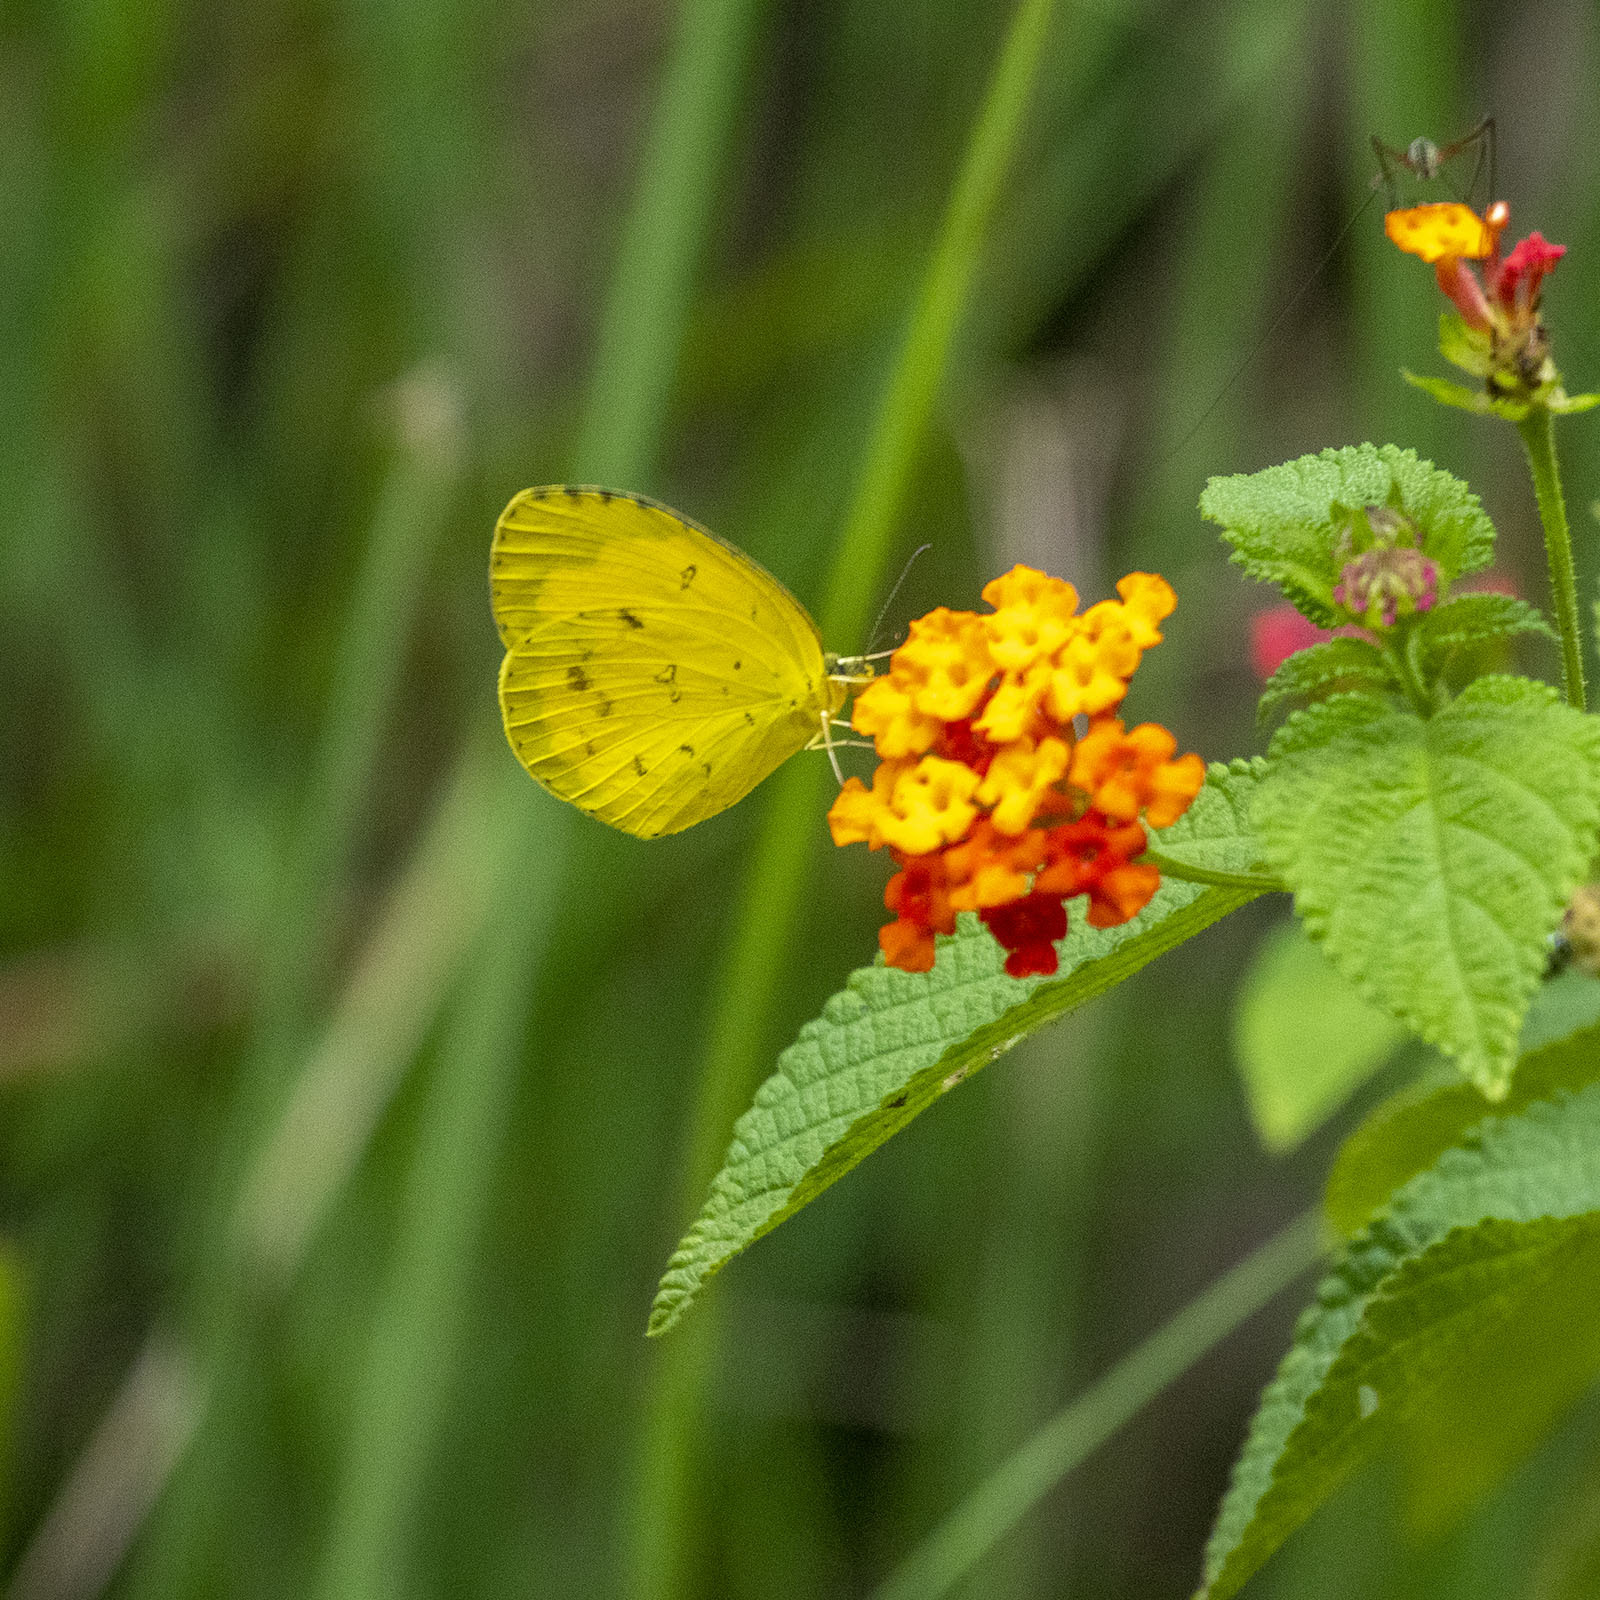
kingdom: Animalia
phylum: Arthropoda
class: Insecta
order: Lepidoptera
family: Pieridae
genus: Eurema
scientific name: Eurema hecabe
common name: Pale grass yellow
